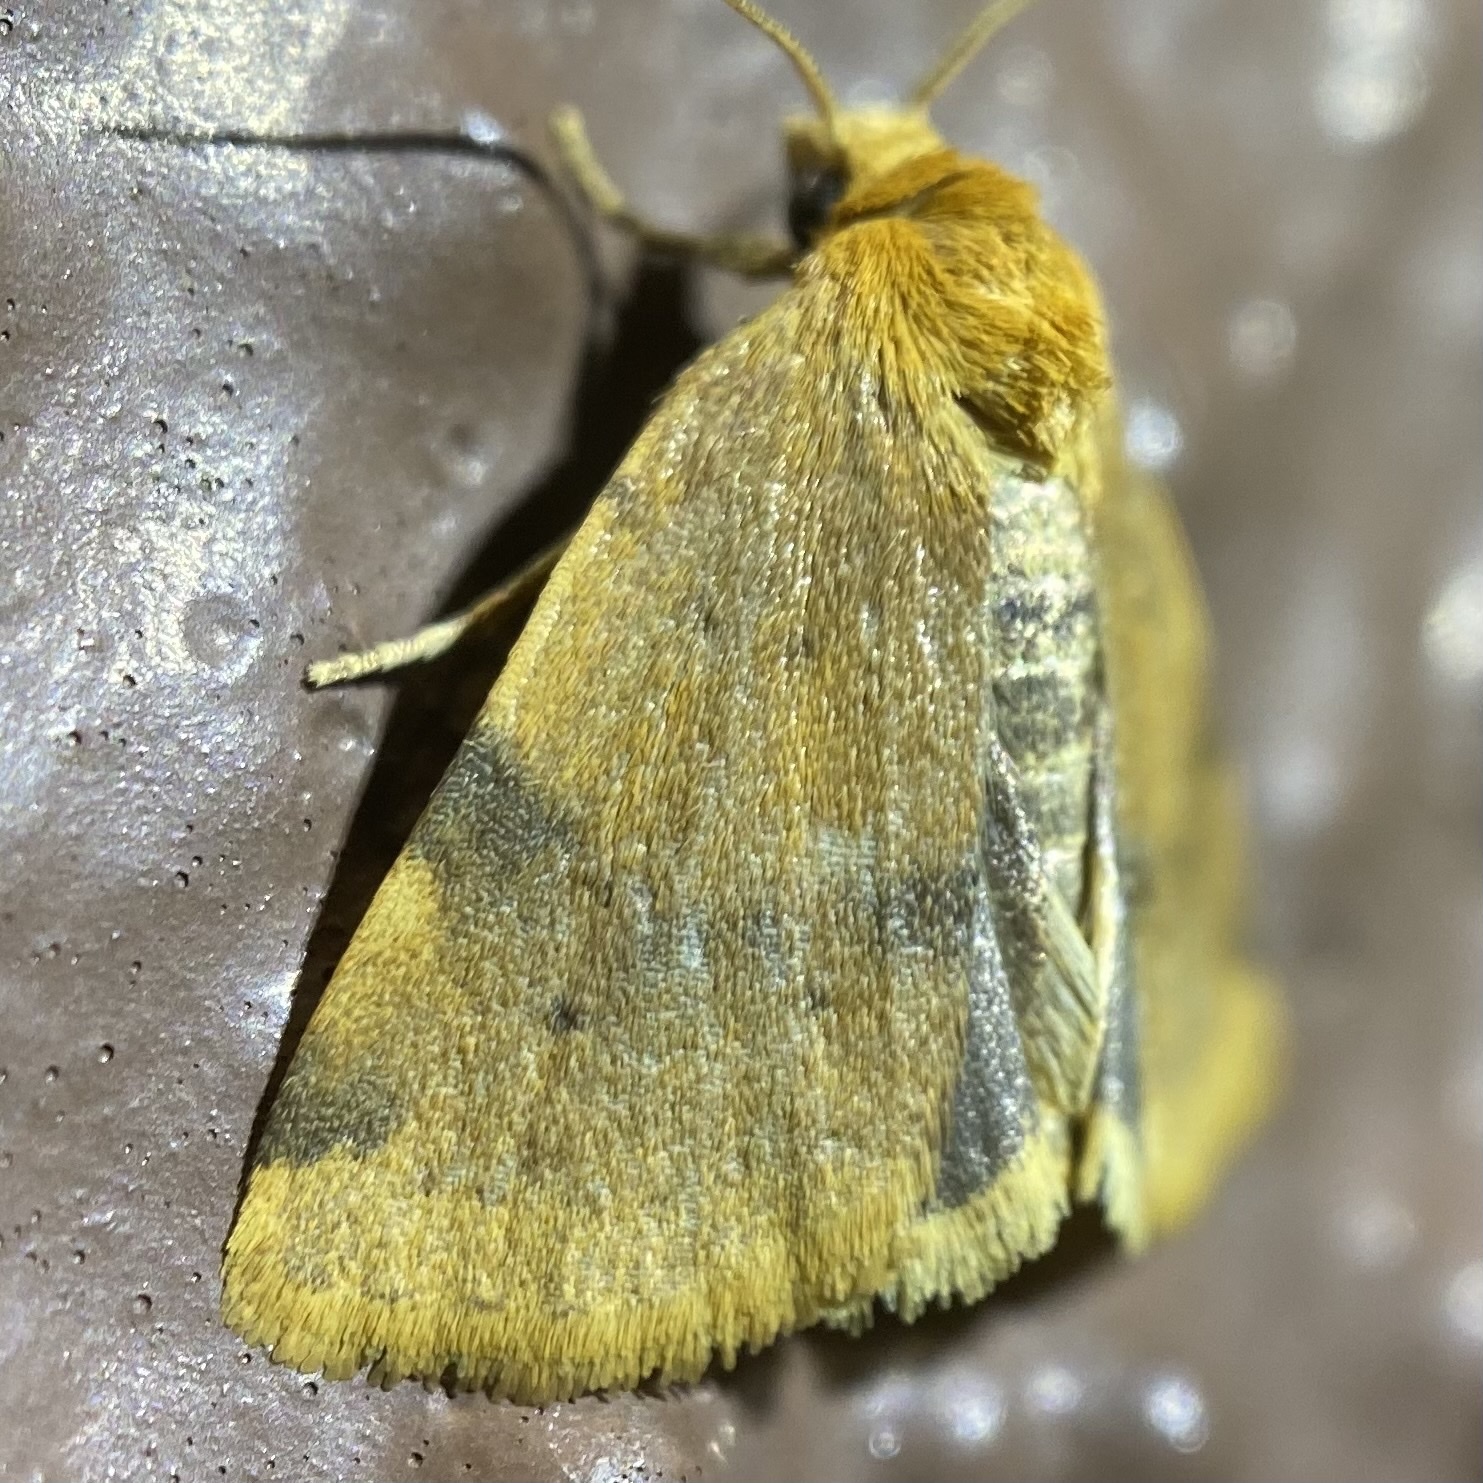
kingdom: Animalia
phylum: Arthropoda
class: Insecta
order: Lepidoptera
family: Noctuidae
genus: Azenia
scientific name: Azenia procida
